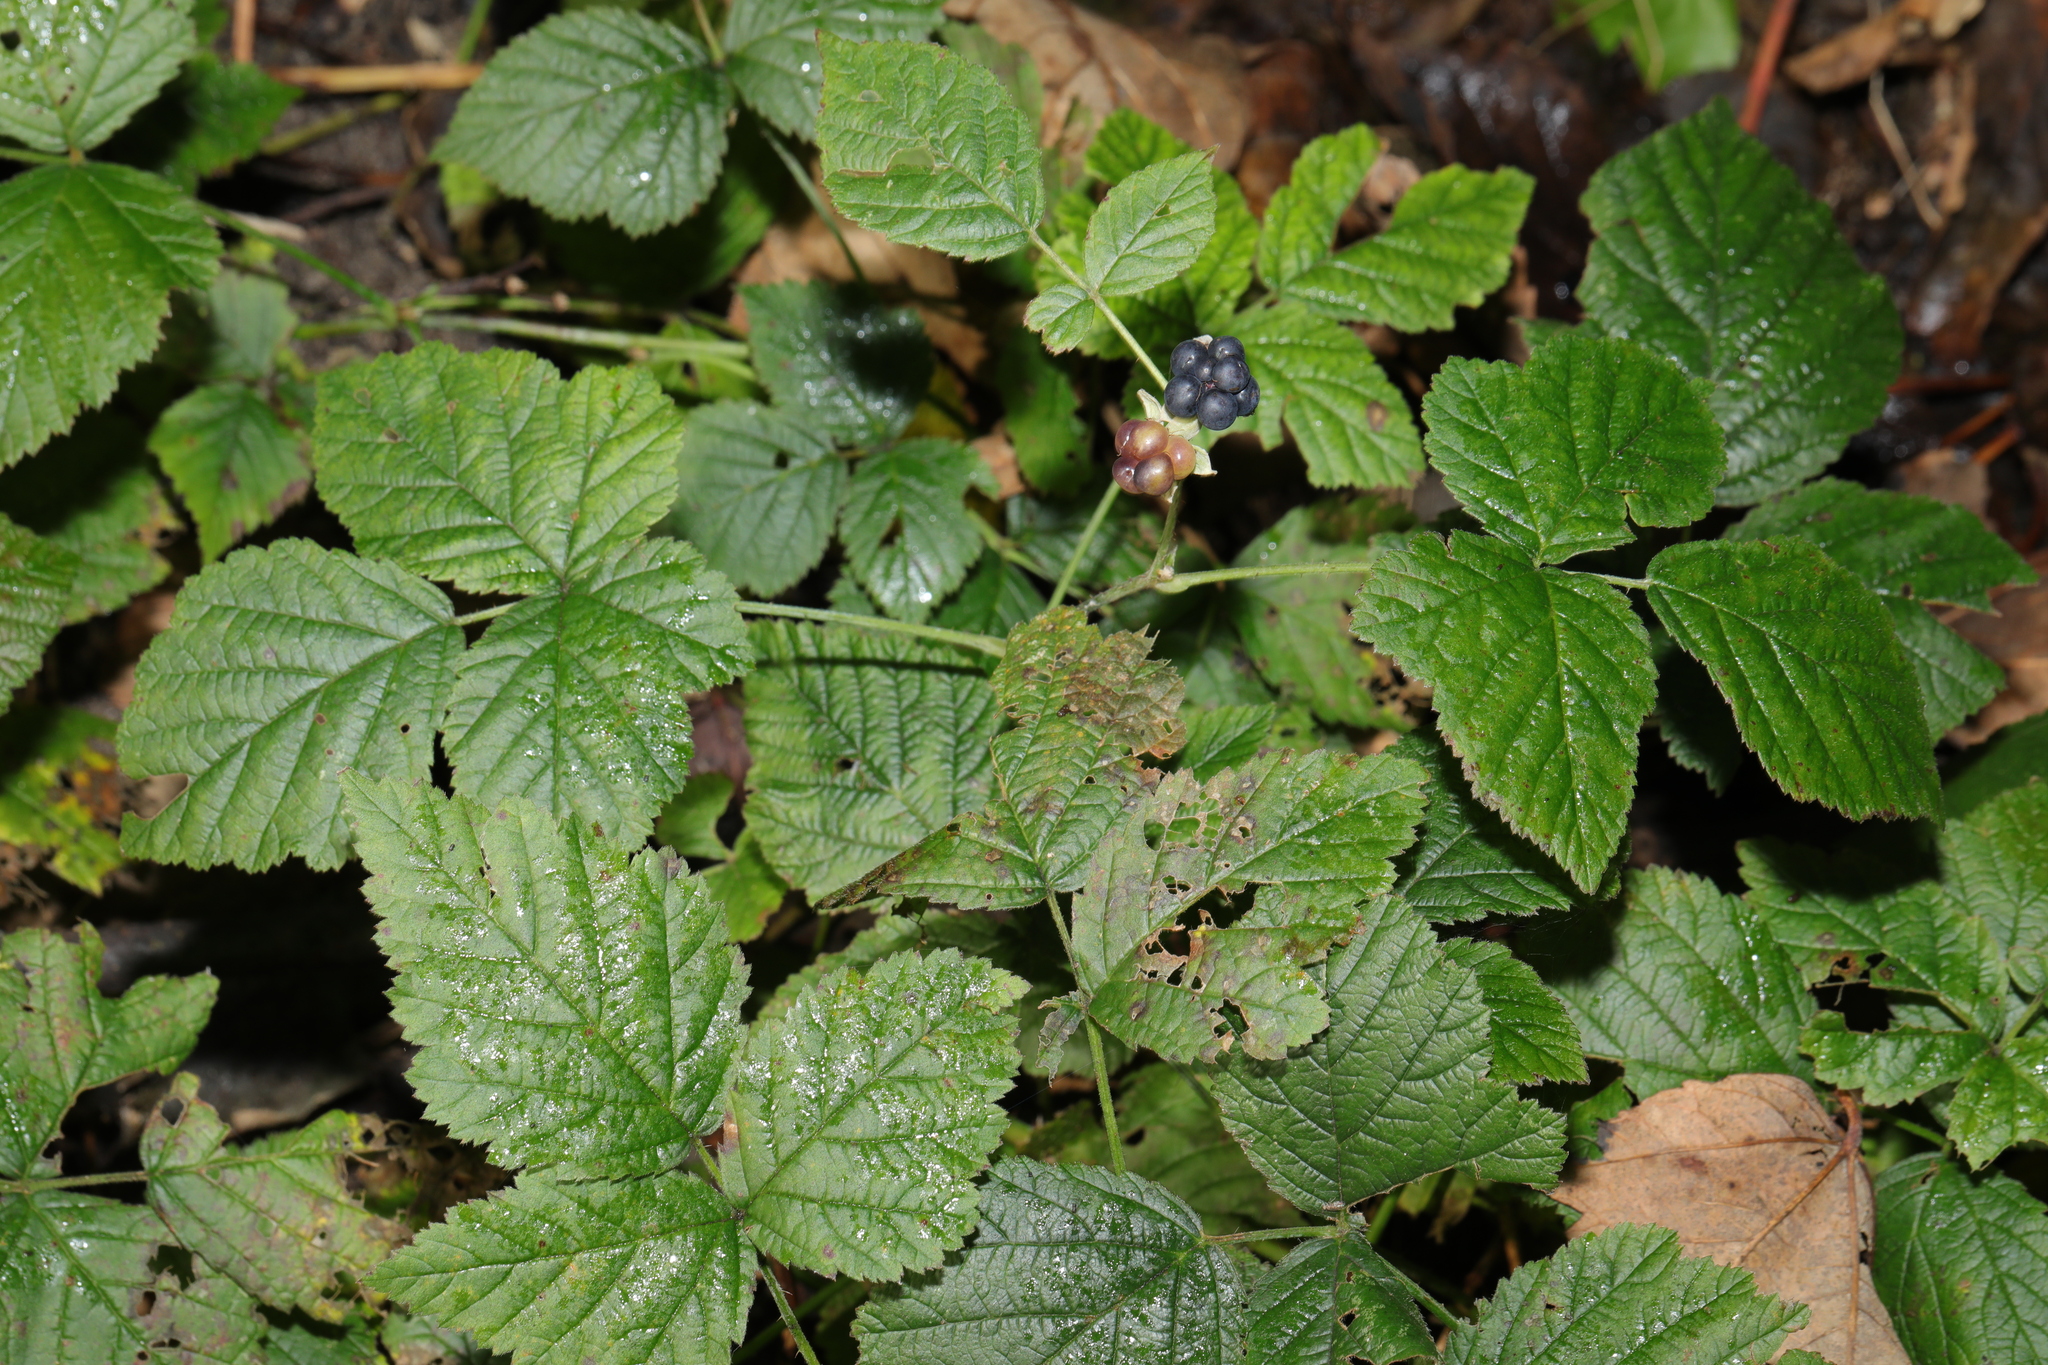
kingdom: Plantae
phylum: Tracheophyta
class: Magnoliopsida
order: Rosales
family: Rosaceae
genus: Rubus
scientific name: Rubus caesius
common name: Dewberry
